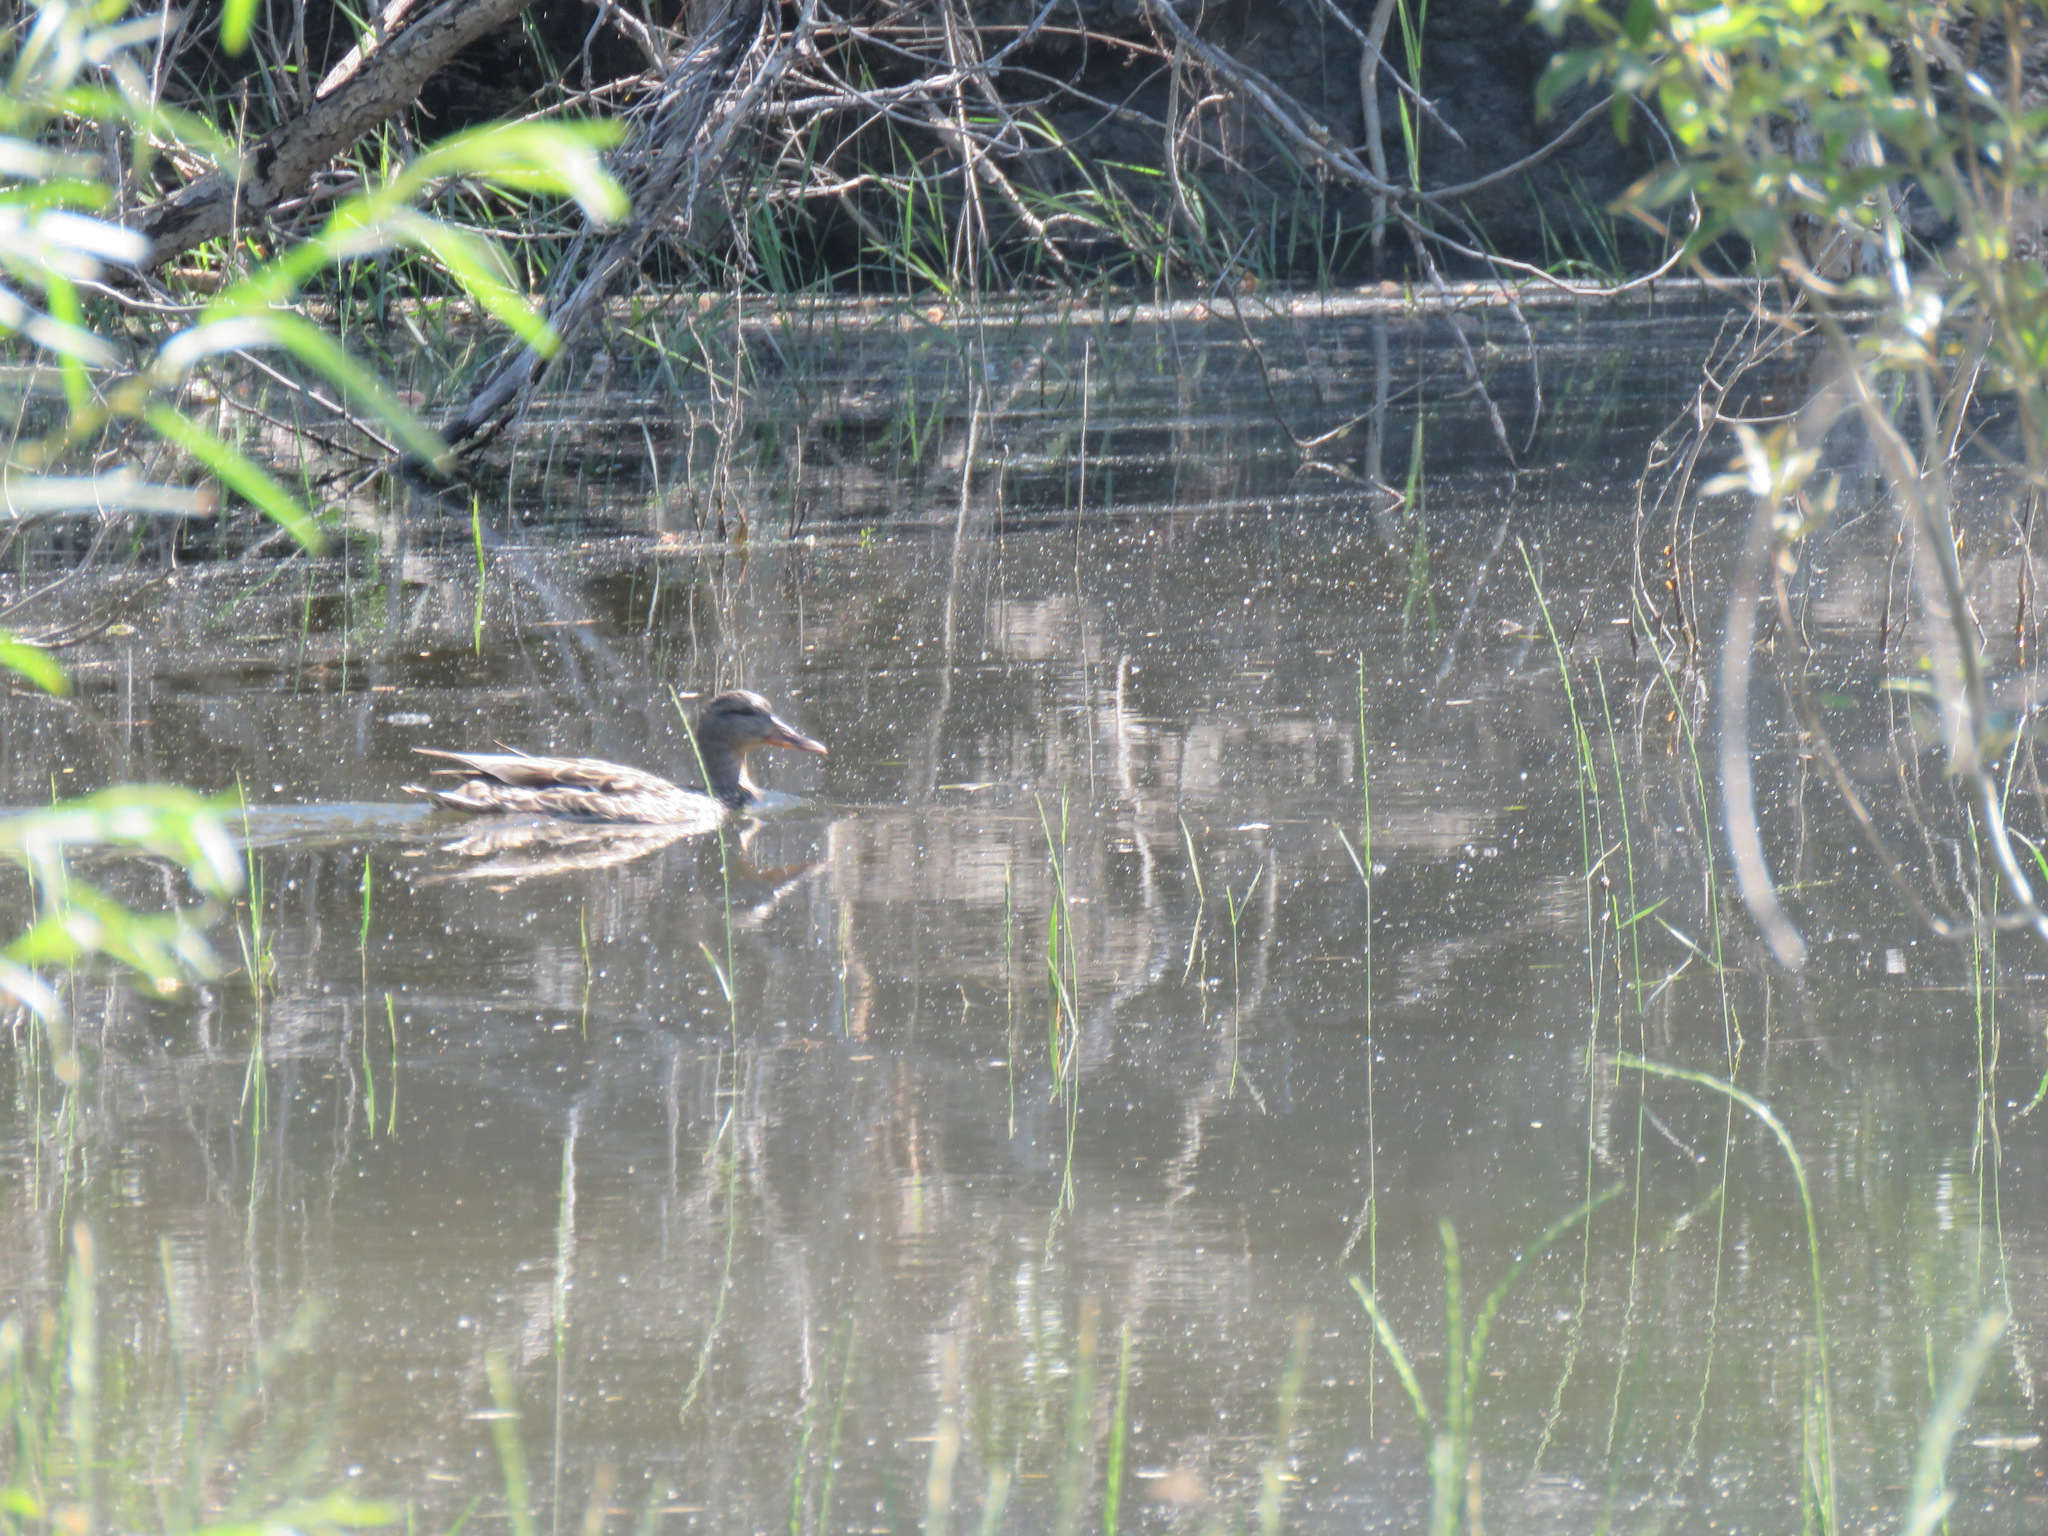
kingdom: Animalia
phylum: Chordata
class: Aves
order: Anseriformes
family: Anatidae
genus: Anas
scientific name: Anas platyrhynchos
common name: Mallard
